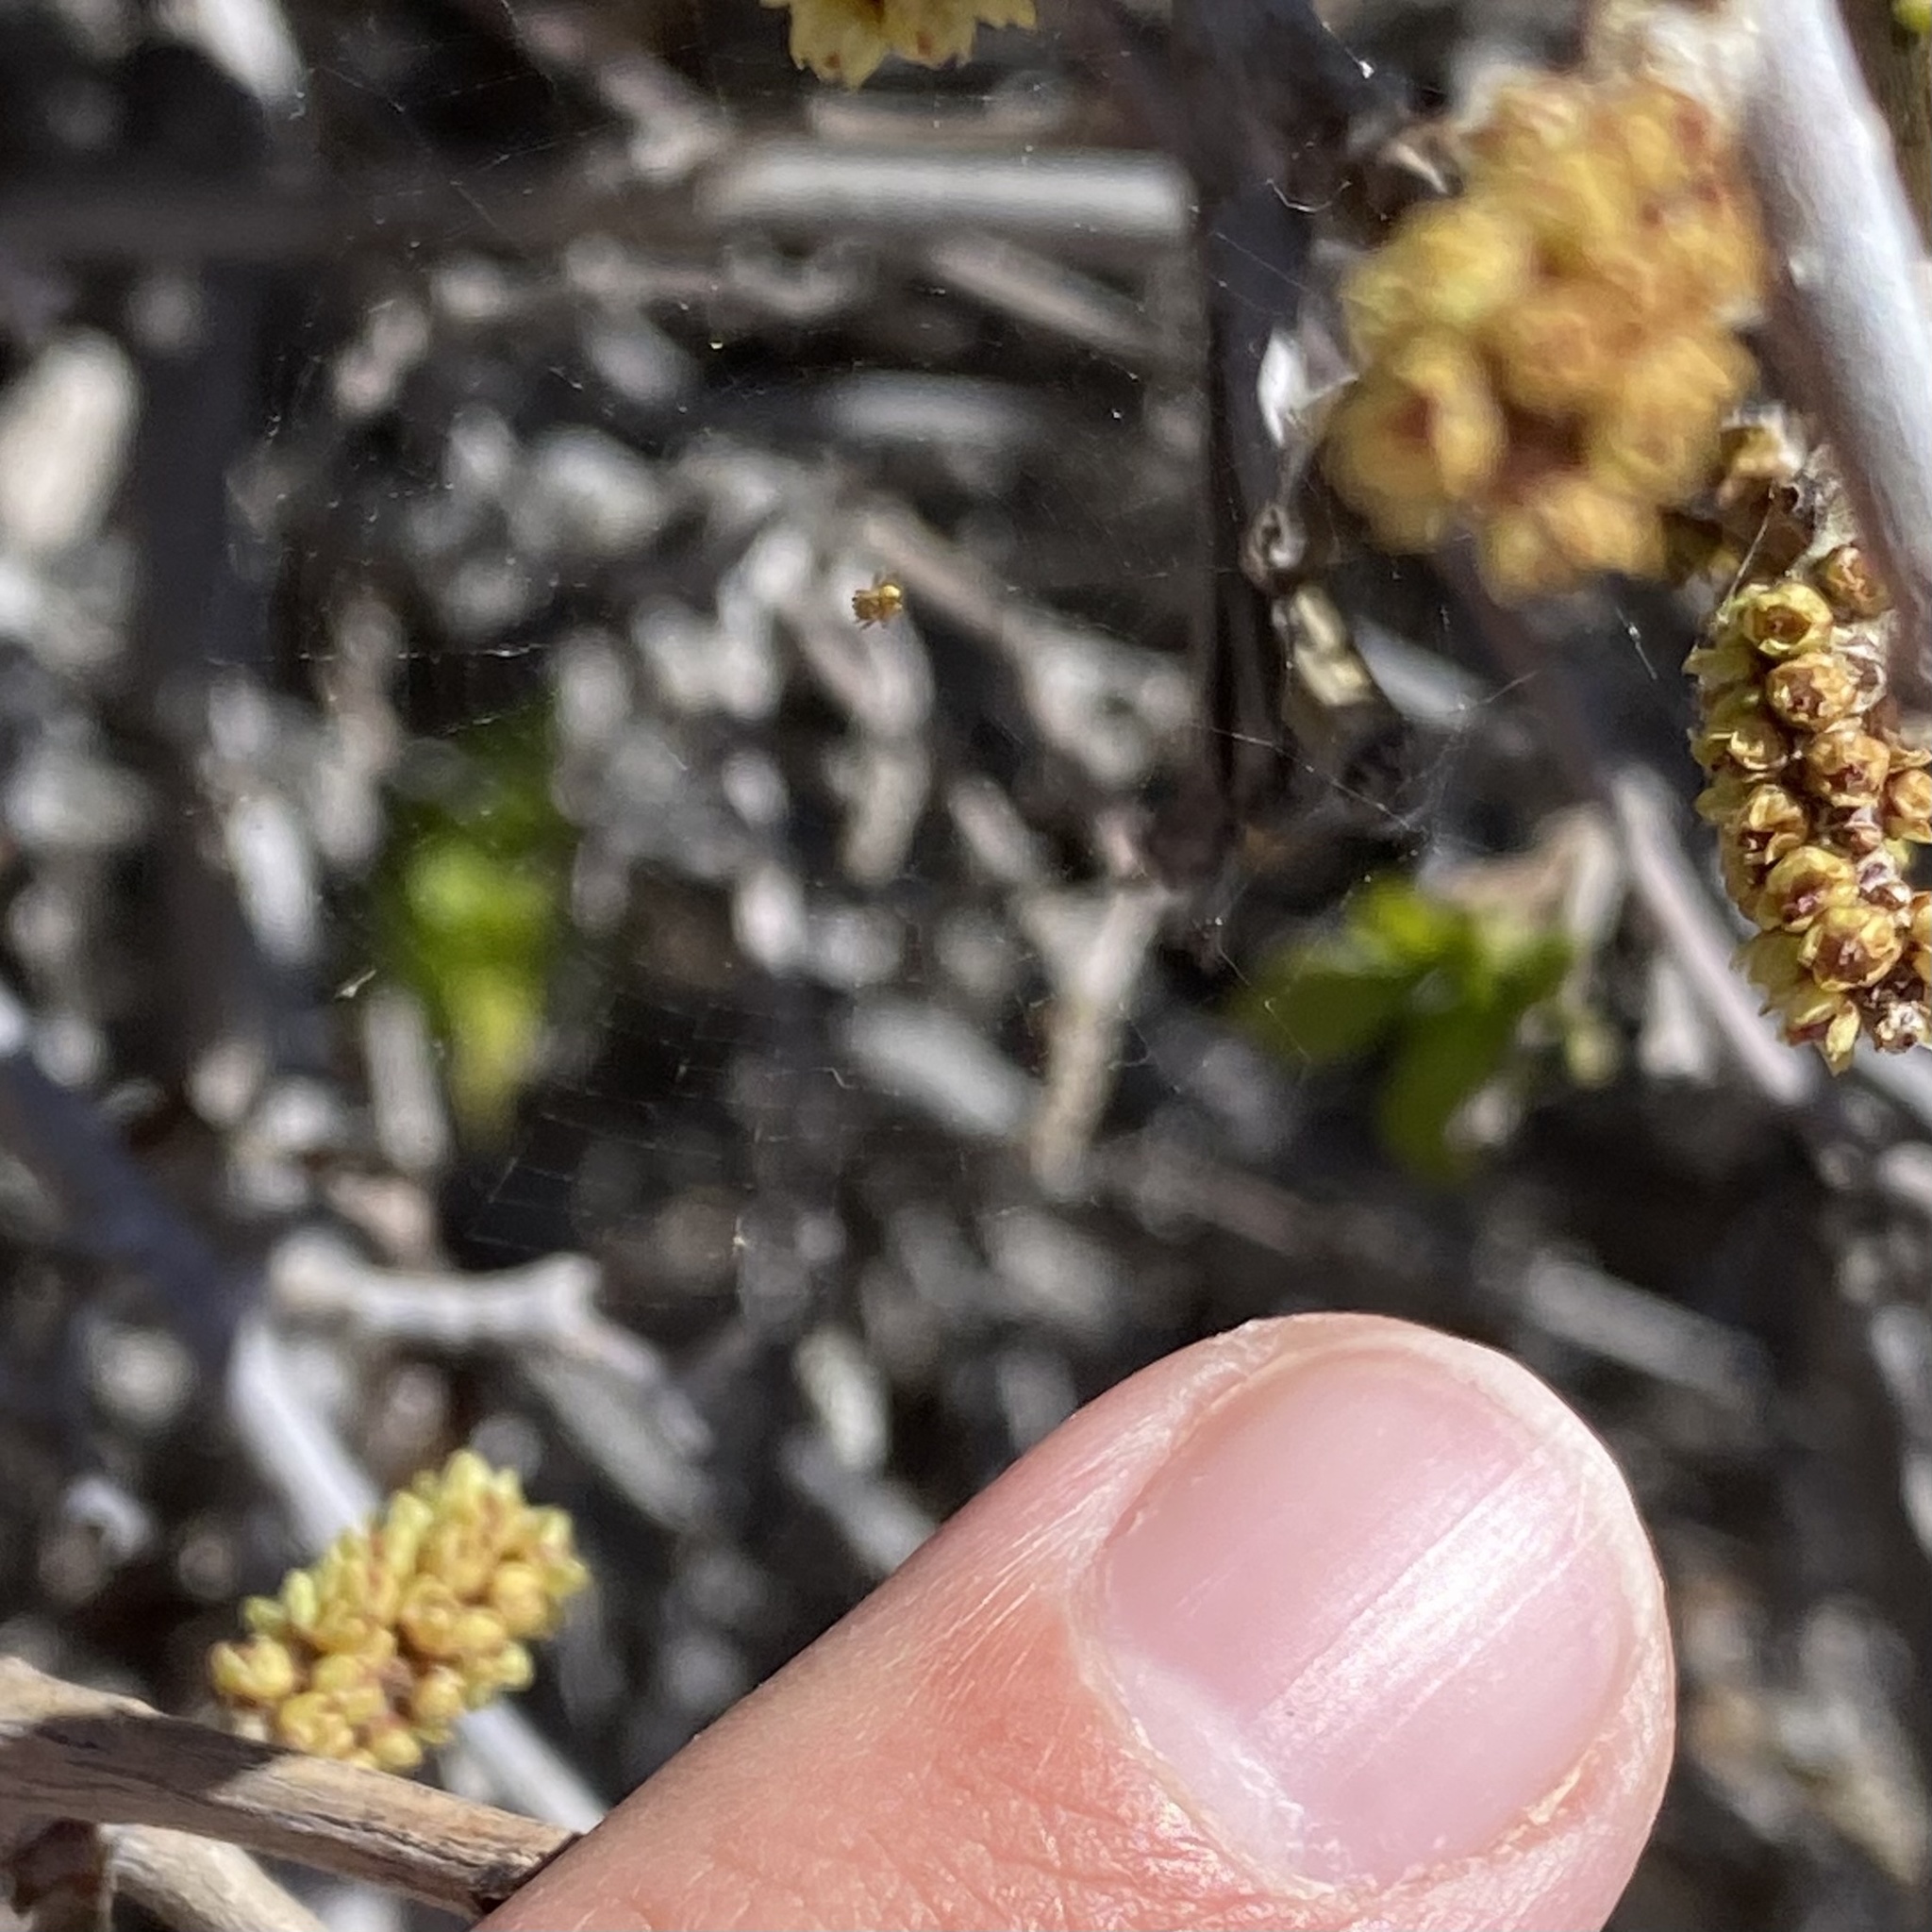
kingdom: Animalia
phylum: Arthropoda
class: Arachnida
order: Araneae
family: Araneidae
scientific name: Araneidae
